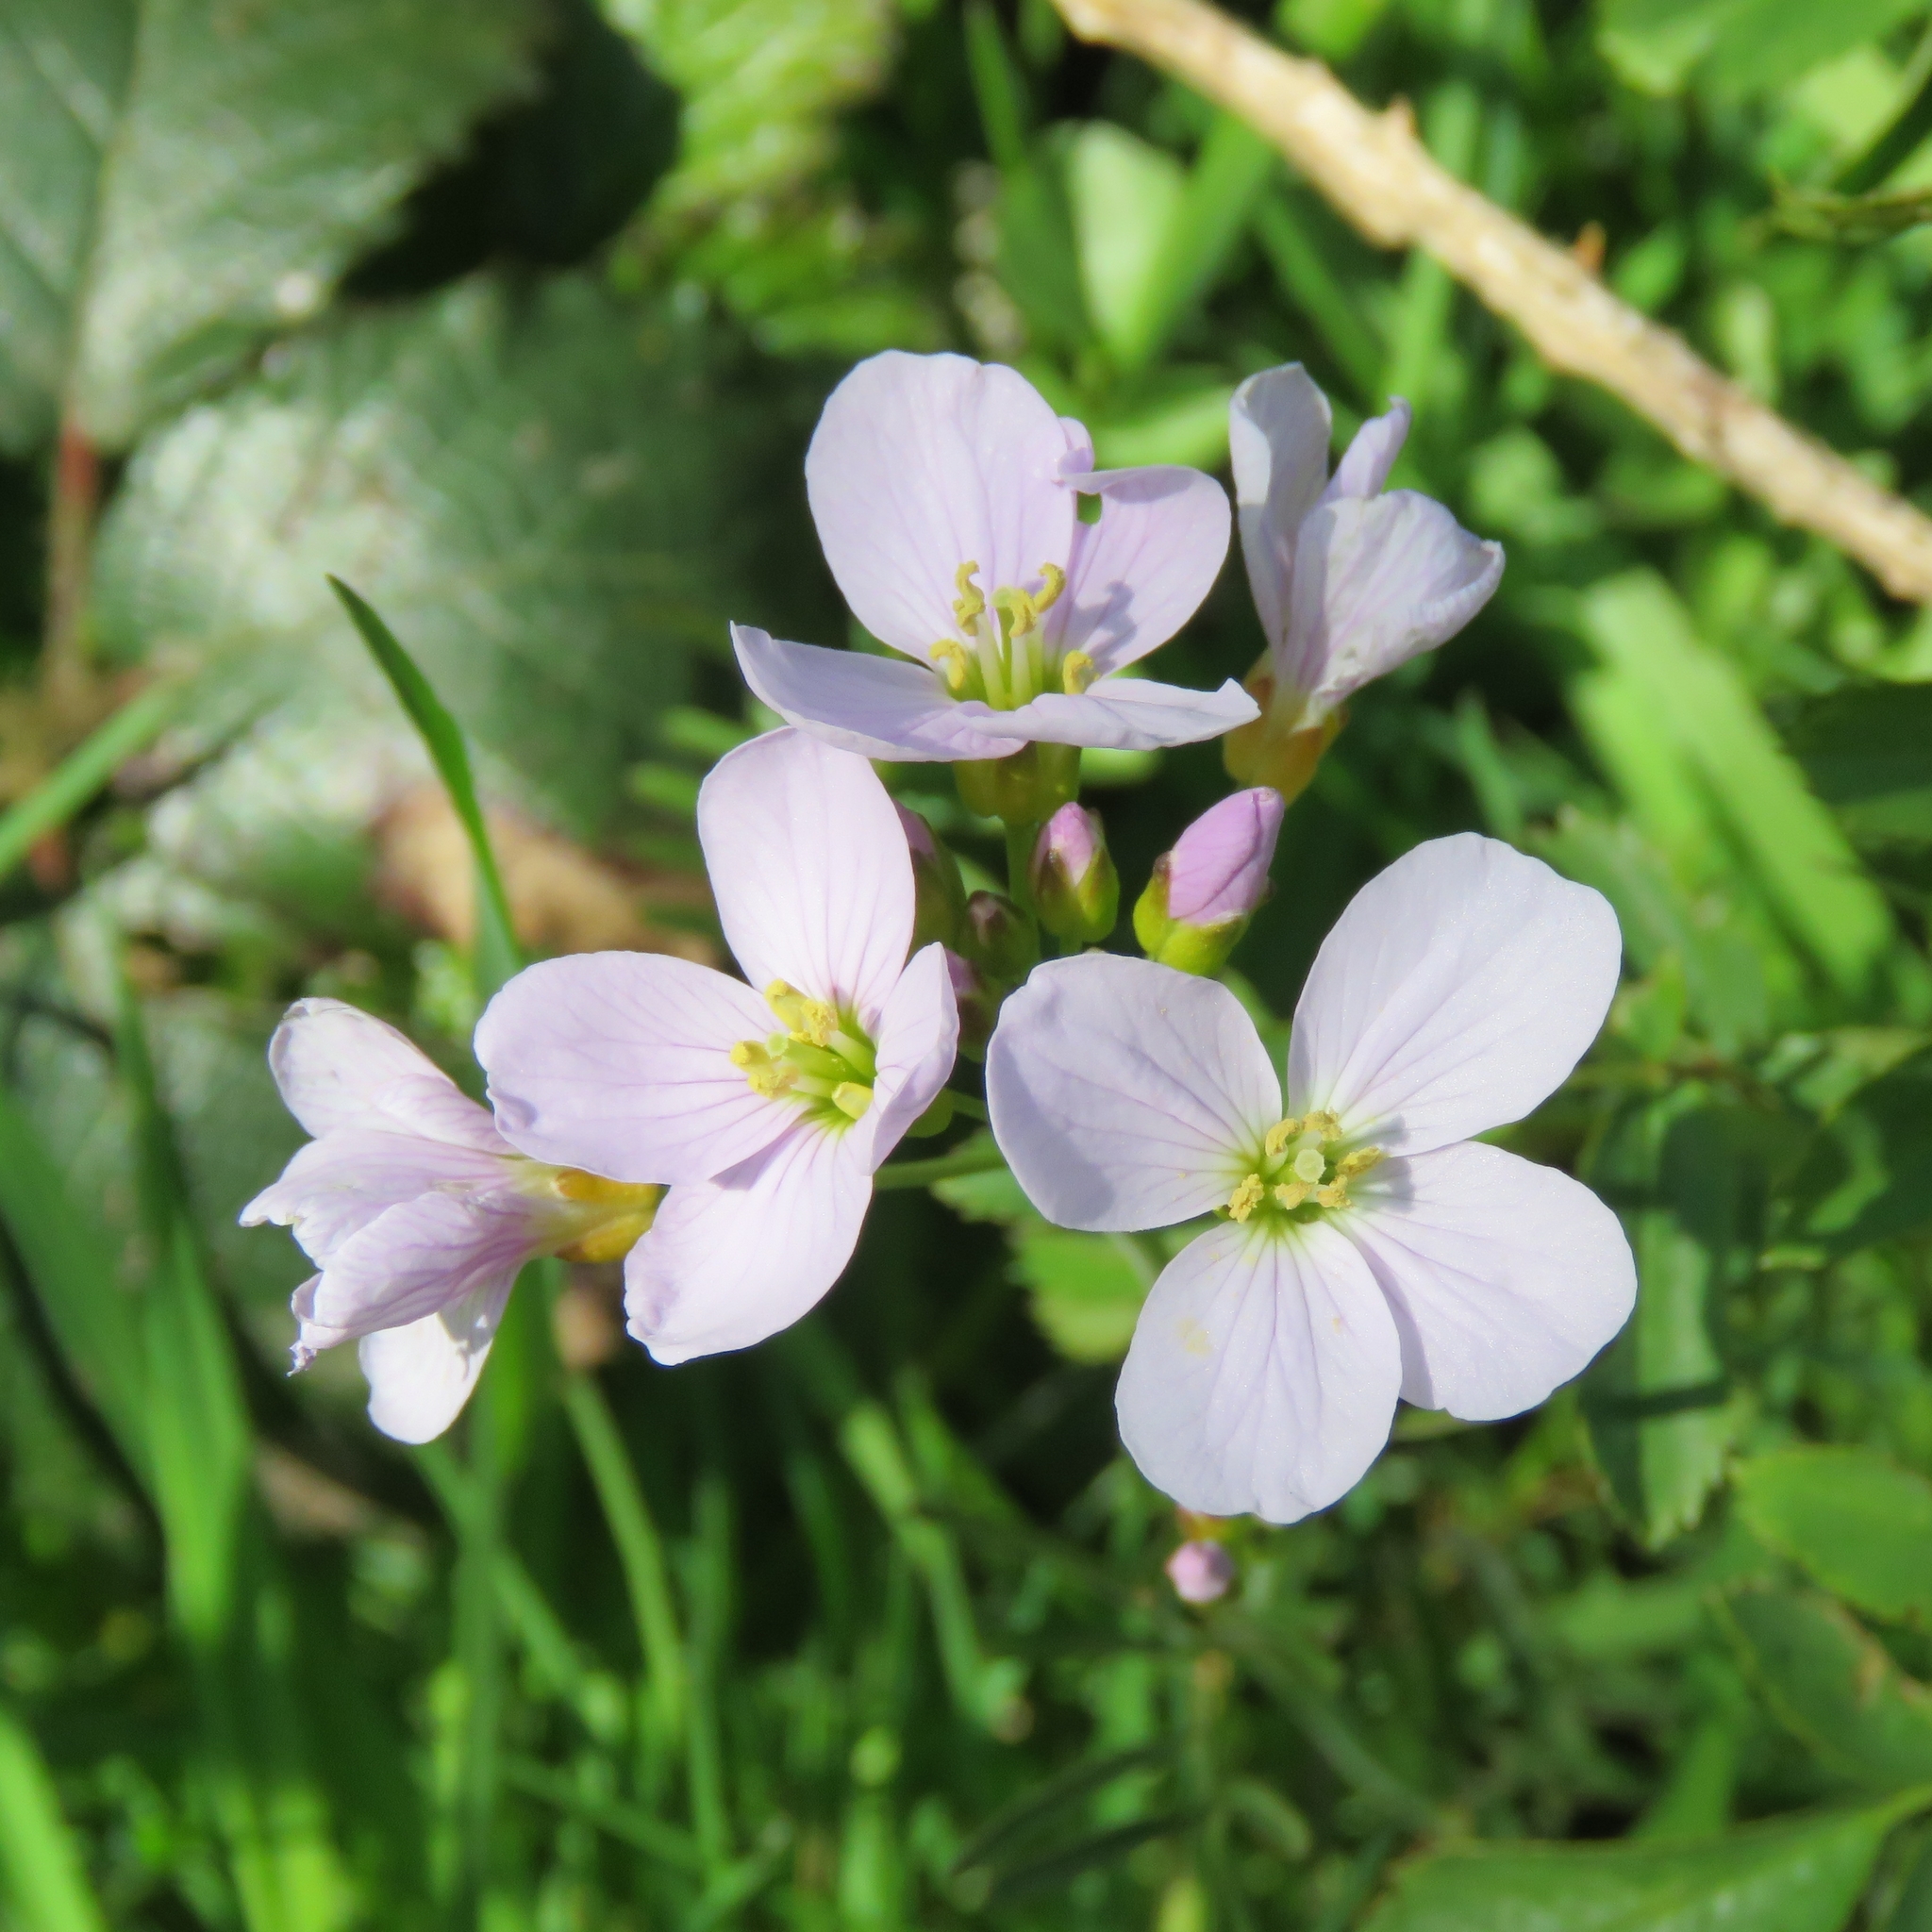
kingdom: Plantae
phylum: Tracheophyta
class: Magnoliopsida
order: Brassicales
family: Brassicaceae
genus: Cardamine
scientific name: Cardamine pratensis
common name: Cuckoo flower
